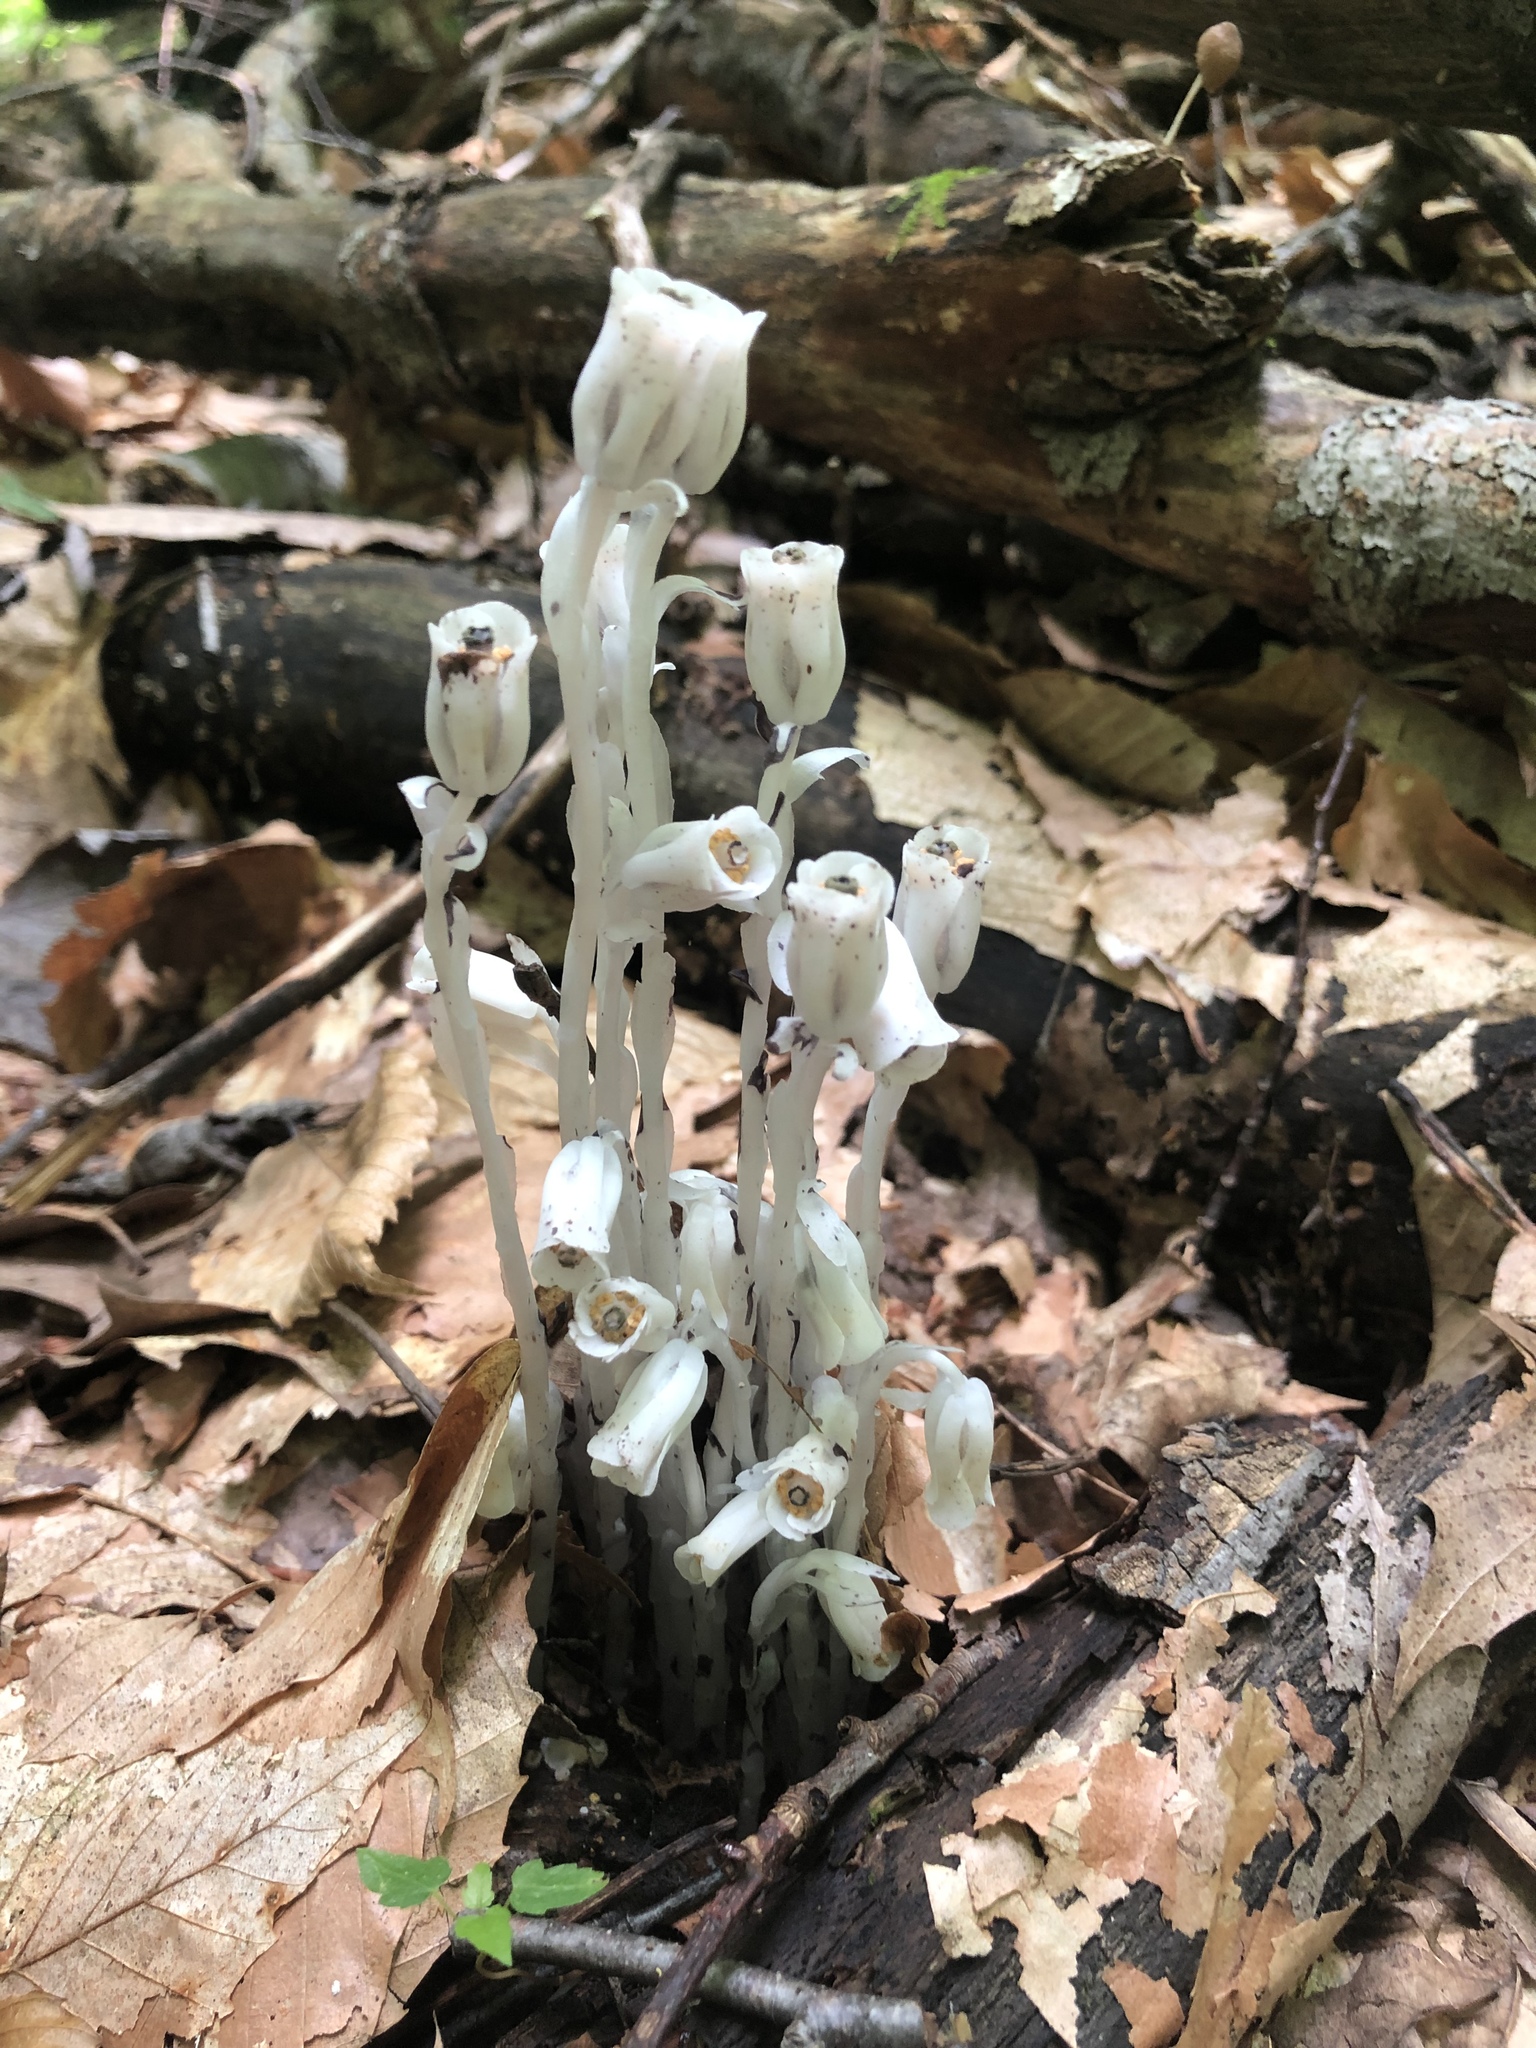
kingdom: Plantae
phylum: Tracheophyta
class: Magnoliopsida
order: Ericales
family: Ericaceae
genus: Monotropa
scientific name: Monotropa uniflora
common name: Convulsion root
